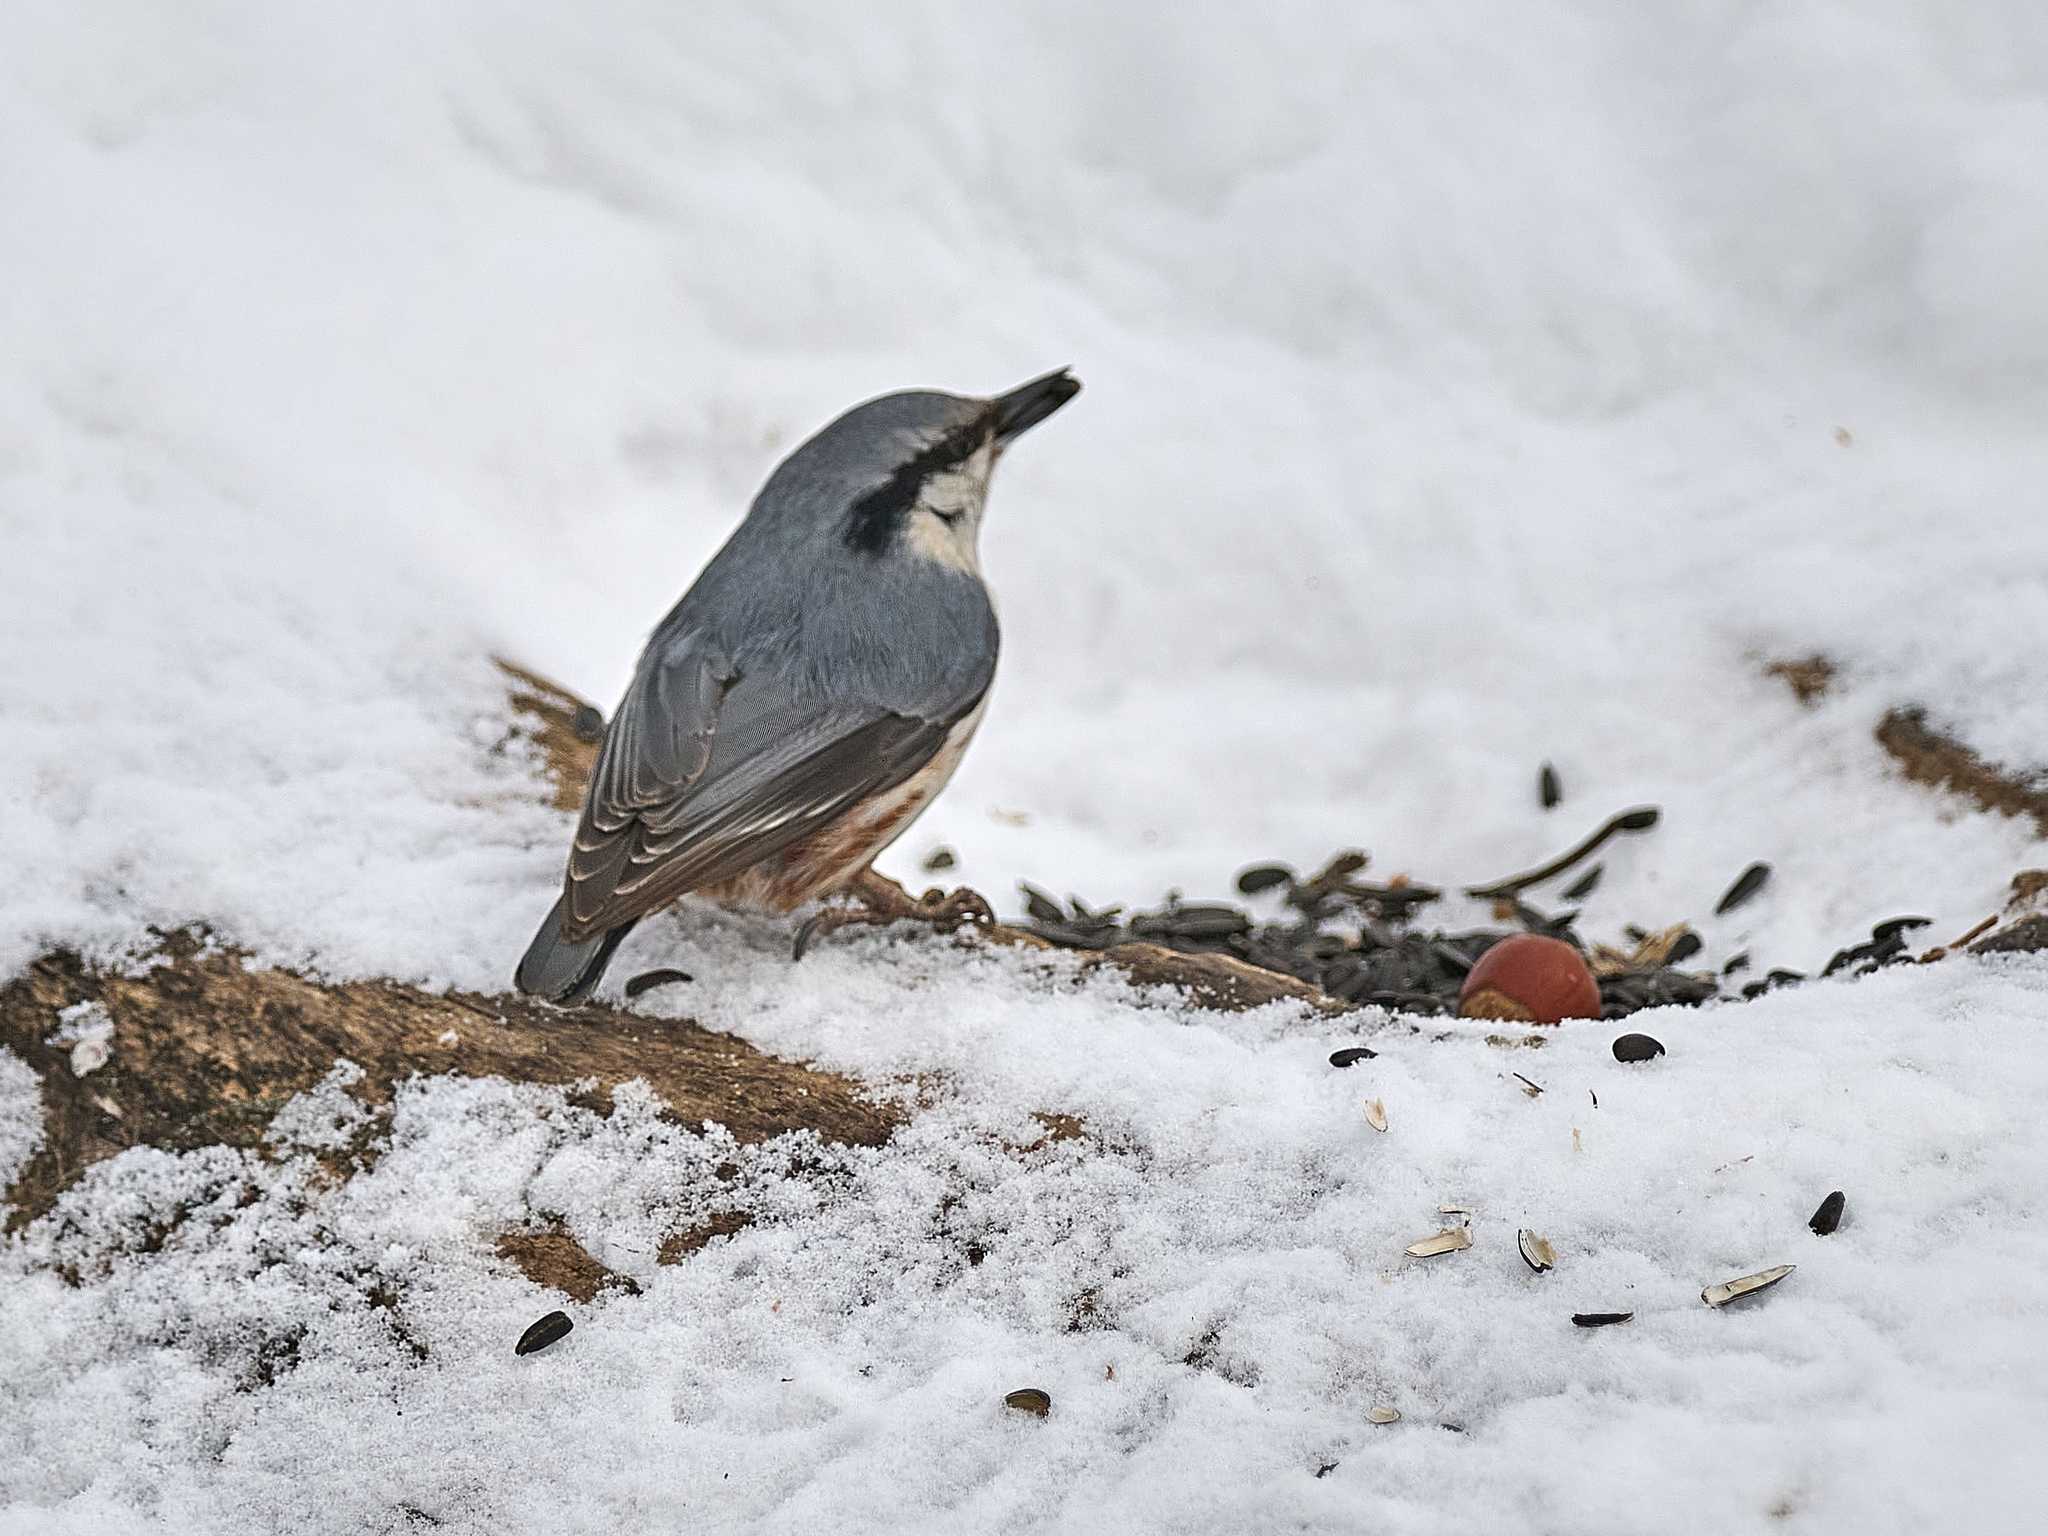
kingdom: Animalia
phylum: Chordata
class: Aves
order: Passeriformes
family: Sittidae
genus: Sitta
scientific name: Sitta europaea
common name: Eurasian nuthatch
